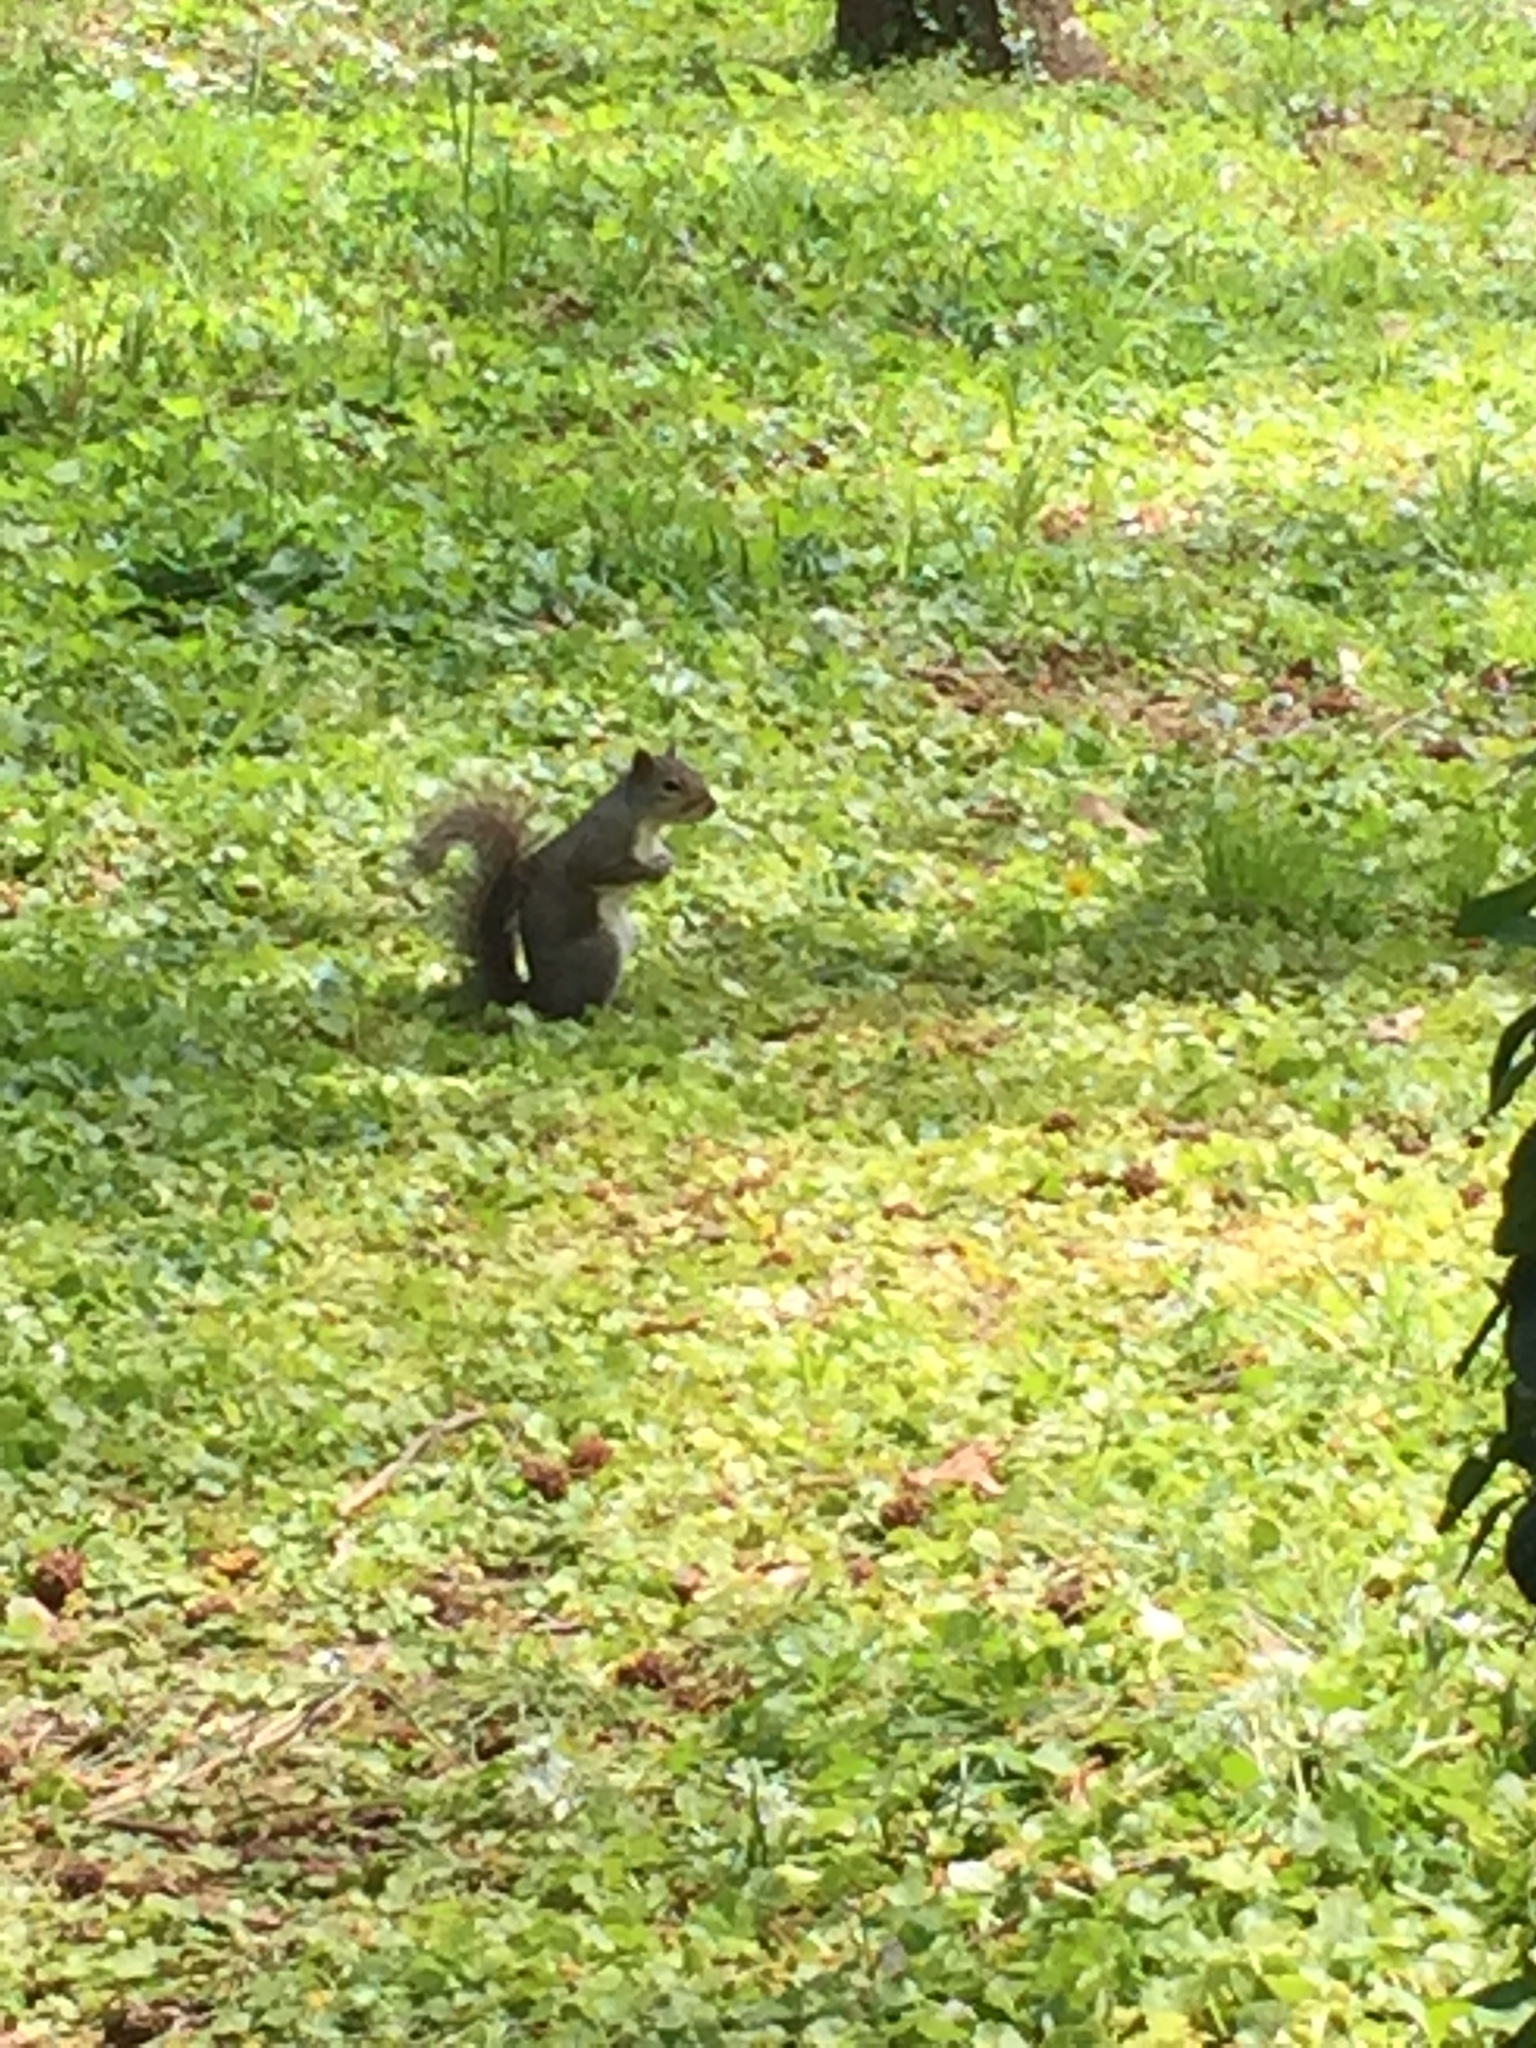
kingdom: Animalia
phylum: Chordata
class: Mammalia
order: Rodentia
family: Sciuridae
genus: Sciurus
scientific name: Sciurus carolinensis
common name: Eastern gray squirrel
